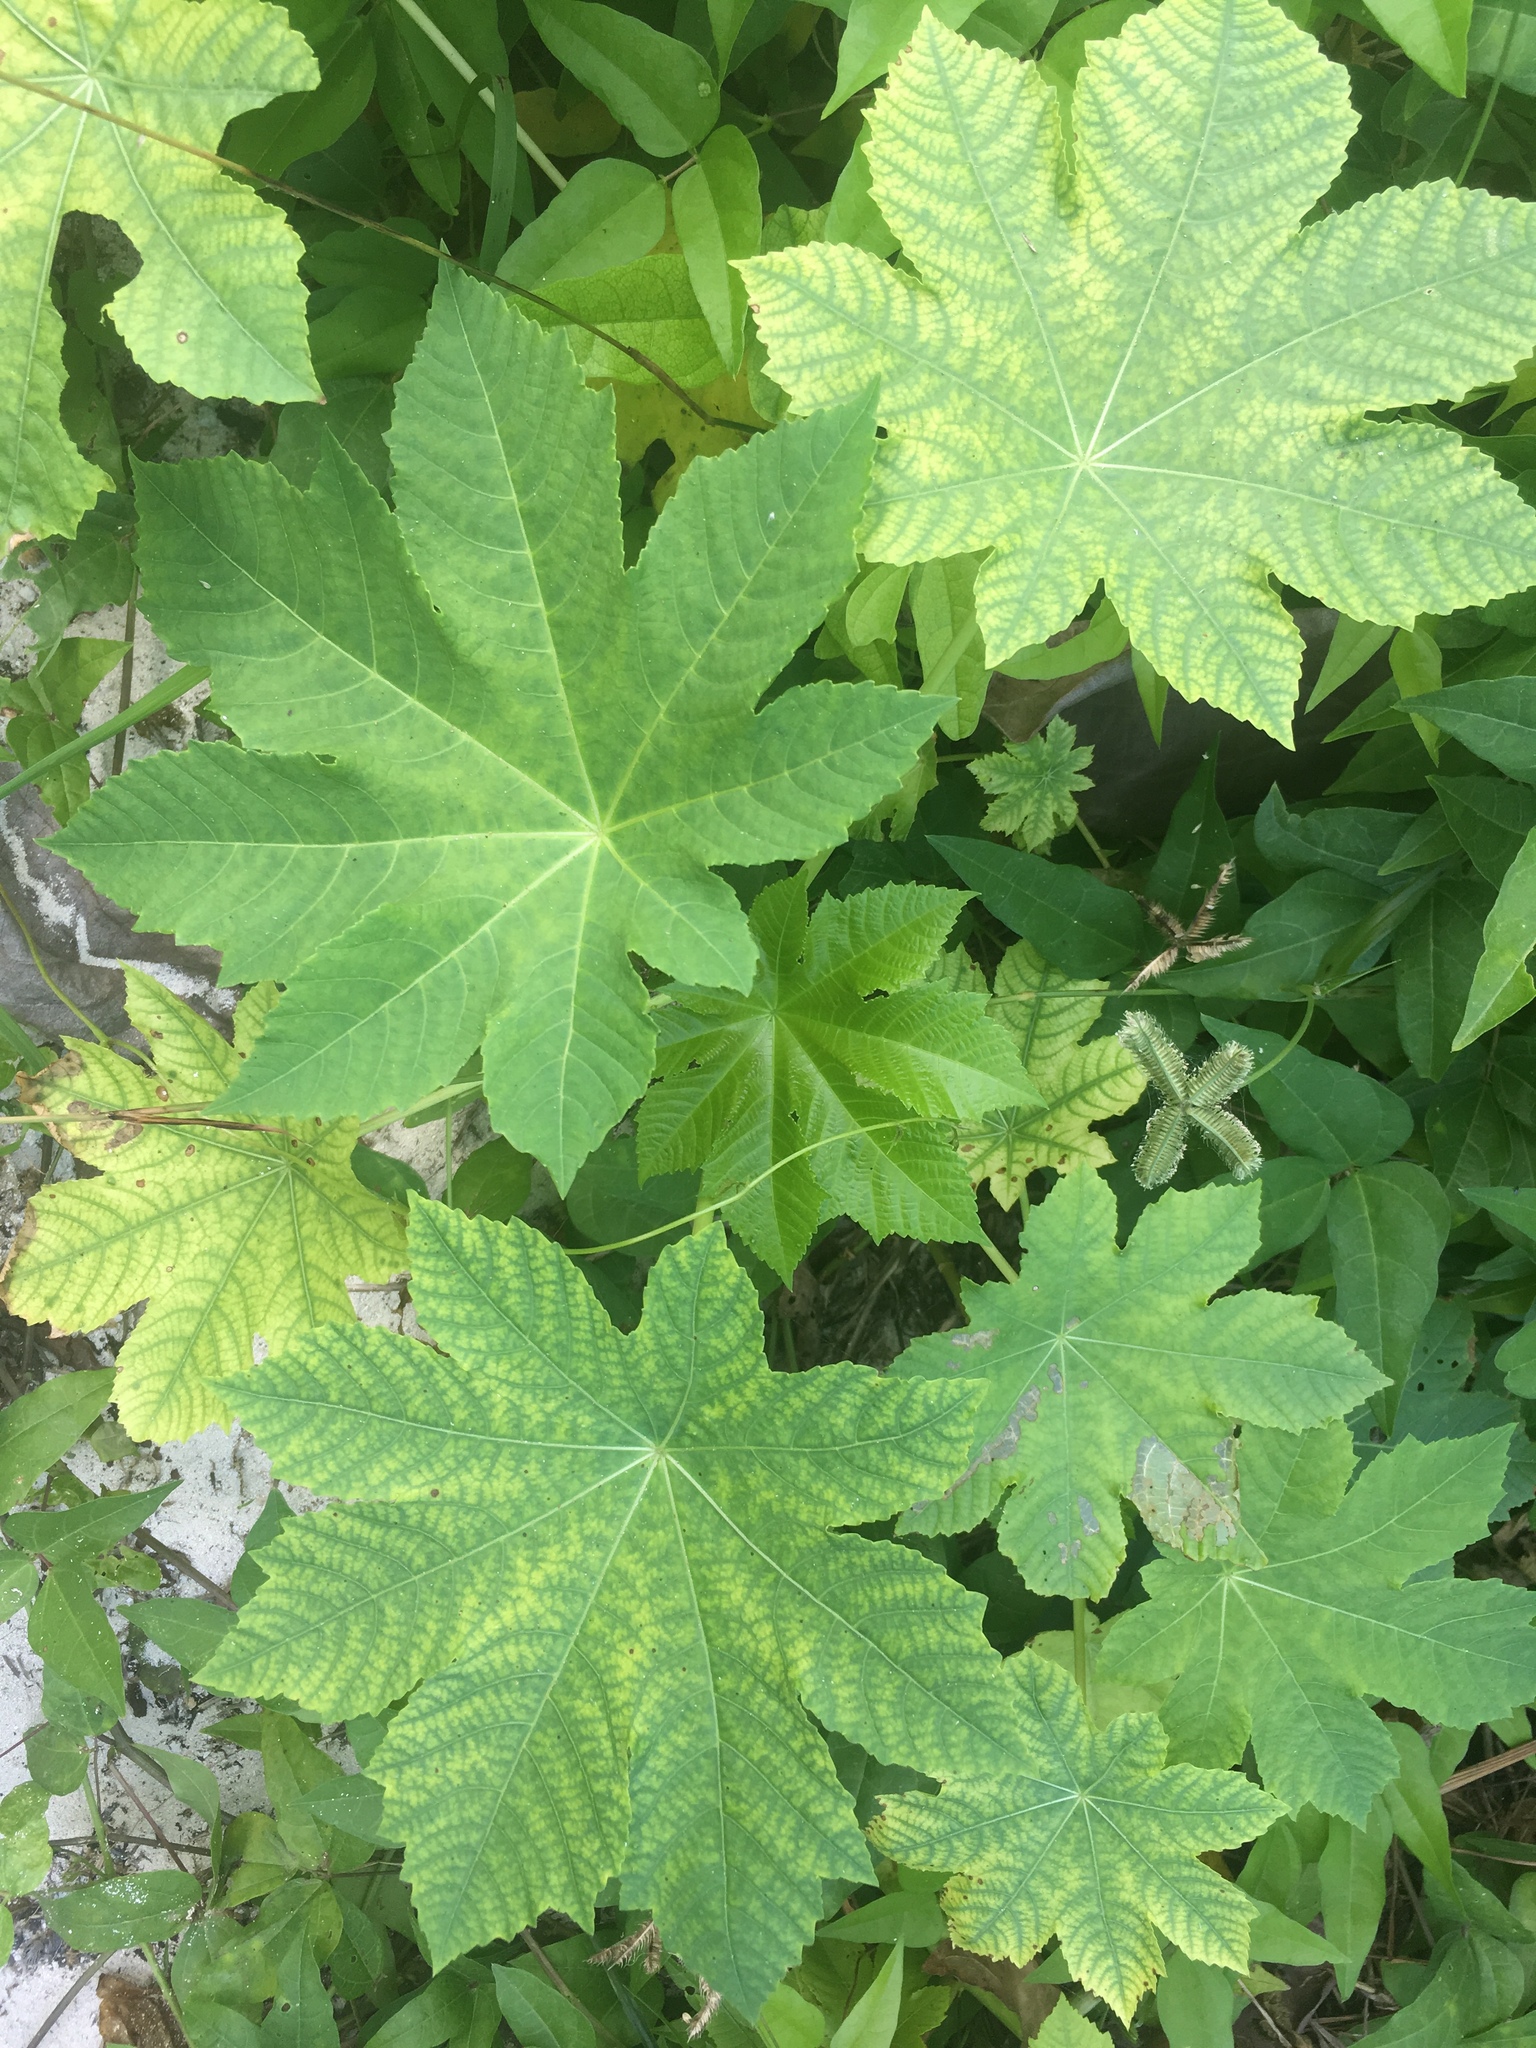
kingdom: Plantae
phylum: Tracheophyta
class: Magnoliopsida
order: Malpighiales
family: Euphorbiaceae
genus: Ricinus
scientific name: Ricinus communis
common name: Castor-oil-plant
